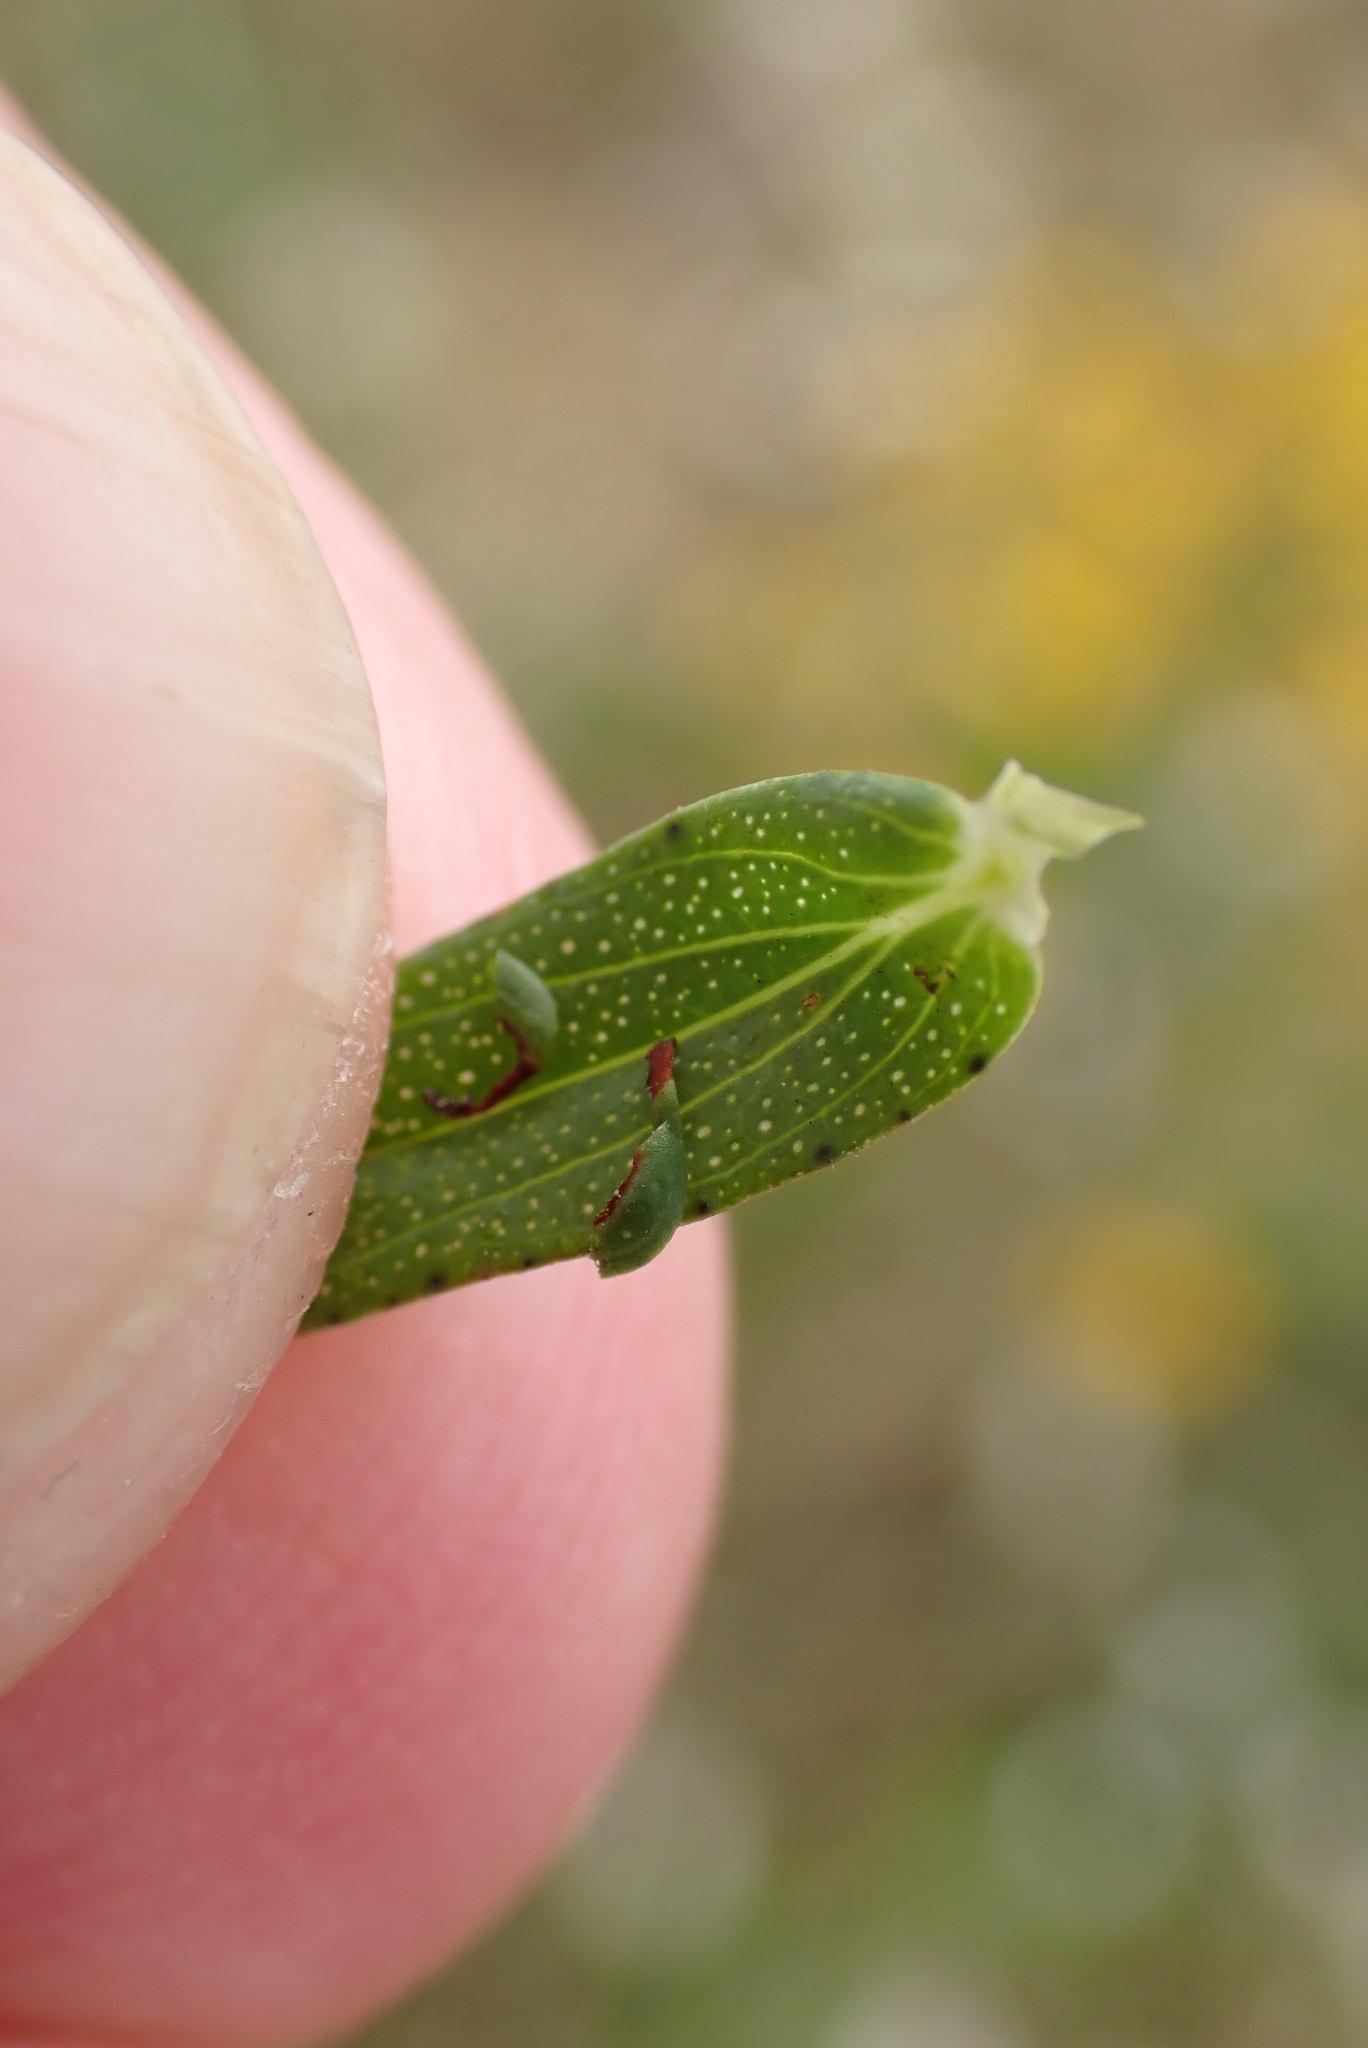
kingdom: Plantae
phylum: Tracheophyta
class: Magnoliopsida
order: Malpighiales
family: Hypericaceae
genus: Hypericum
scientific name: Hypericum perforatum
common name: Common st. johnswort
